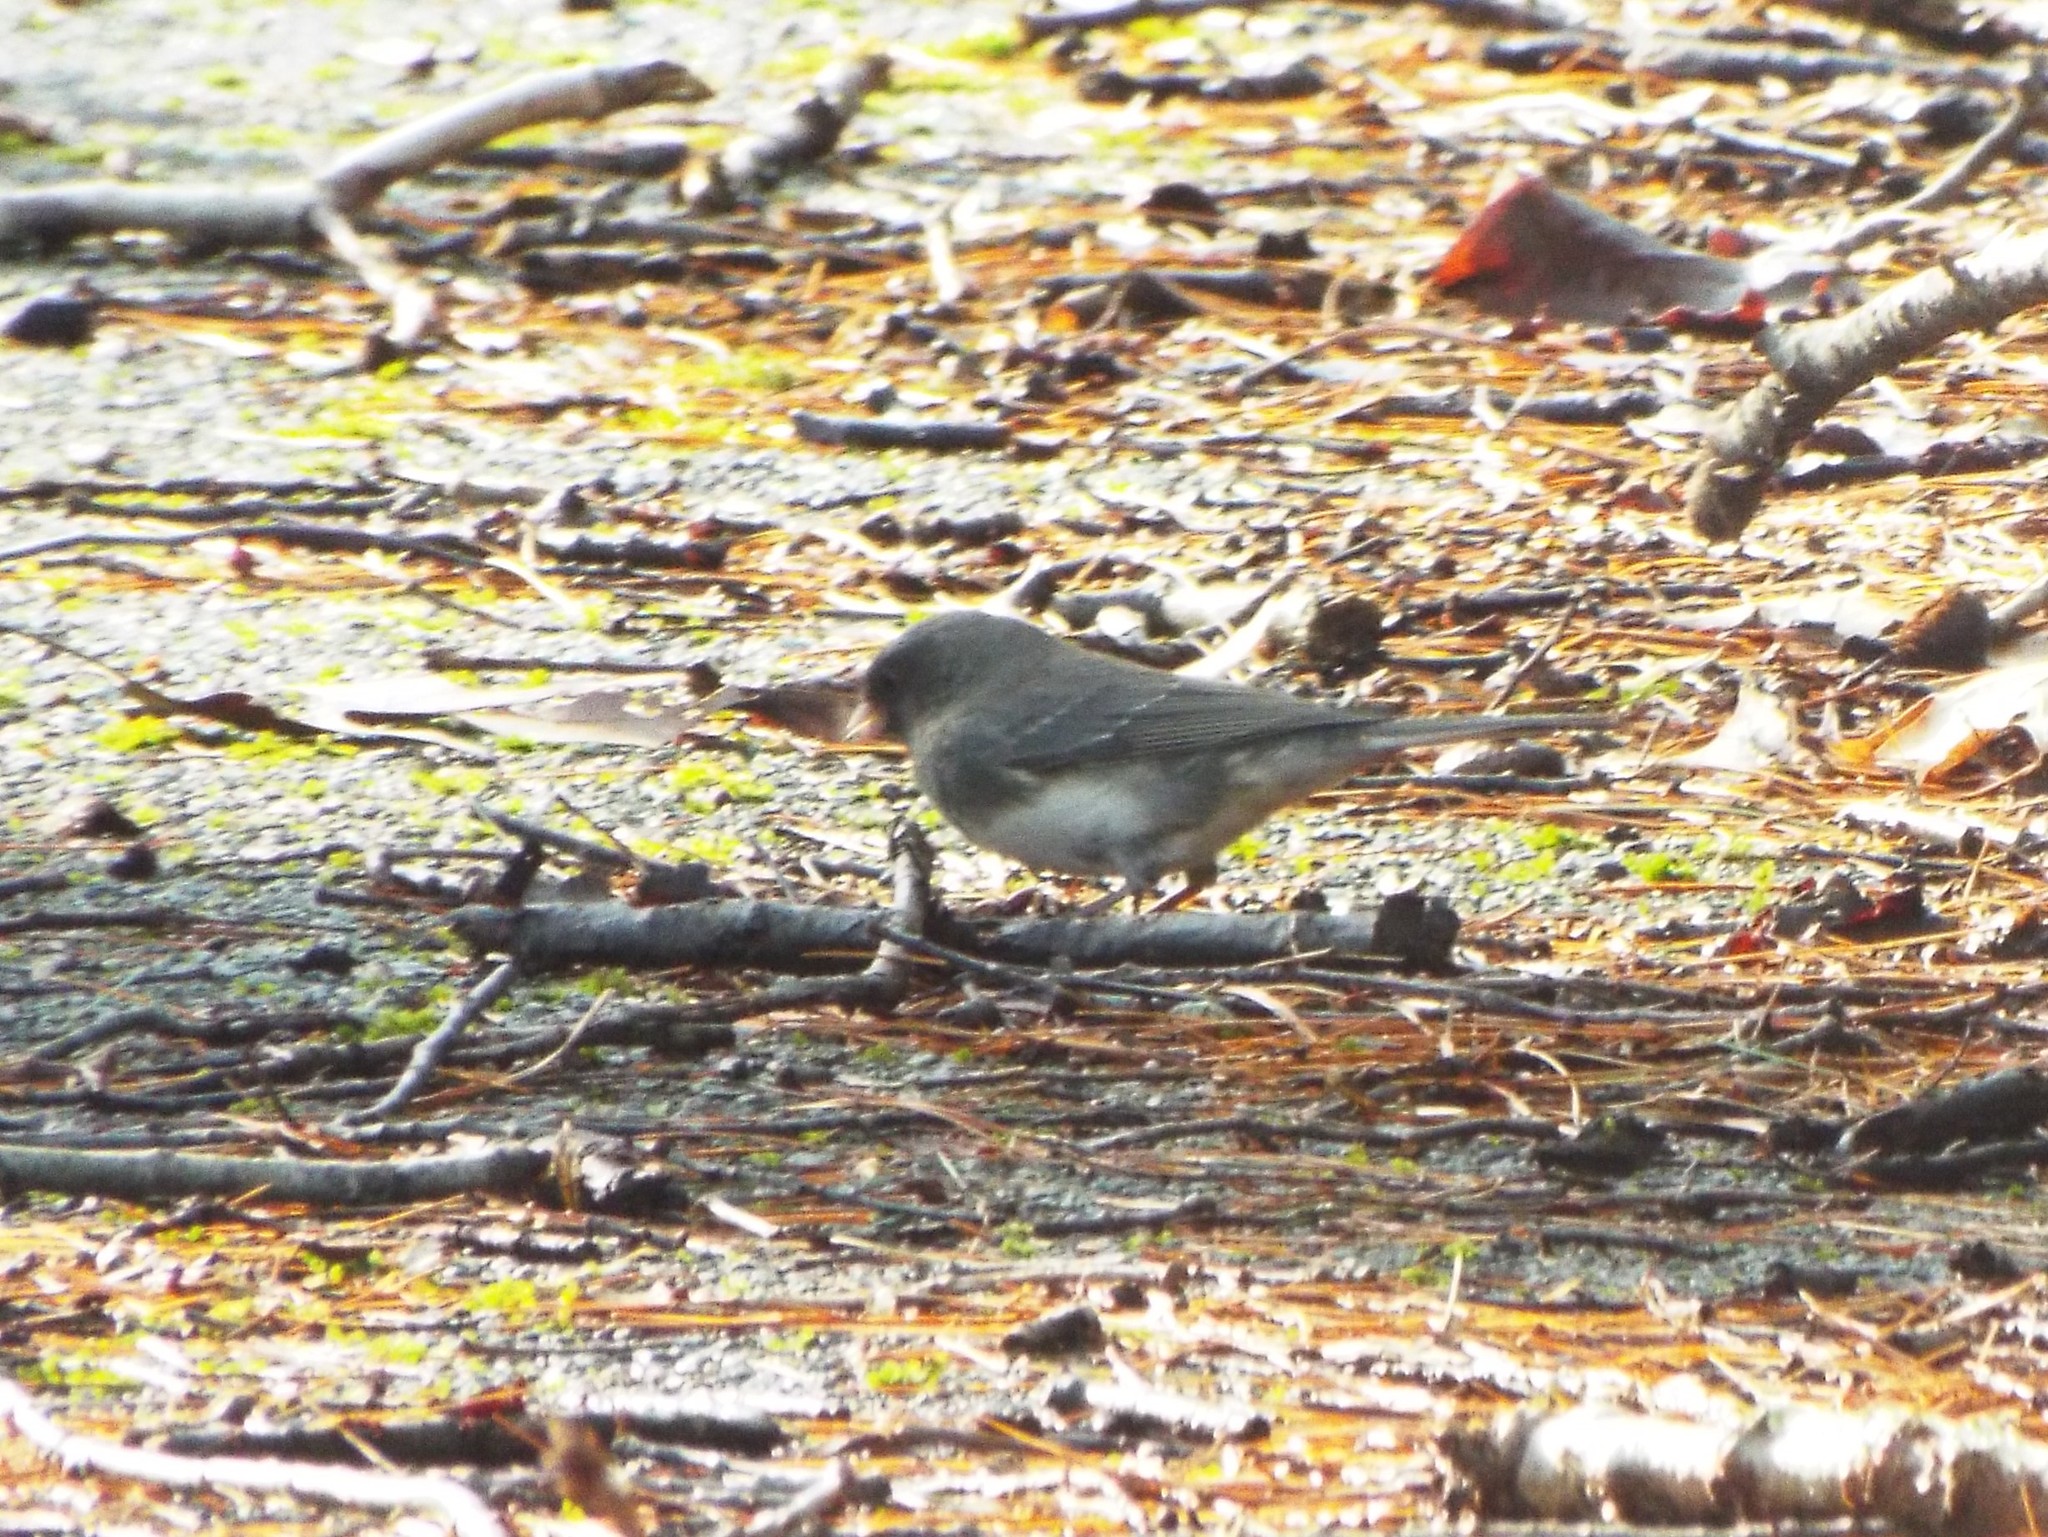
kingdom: Animalia
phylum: Chordata
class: Aves
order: Passeriformes
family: Passerellidae
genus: Junco
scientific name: Junco hyemalis
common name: Dark-eyed junco
